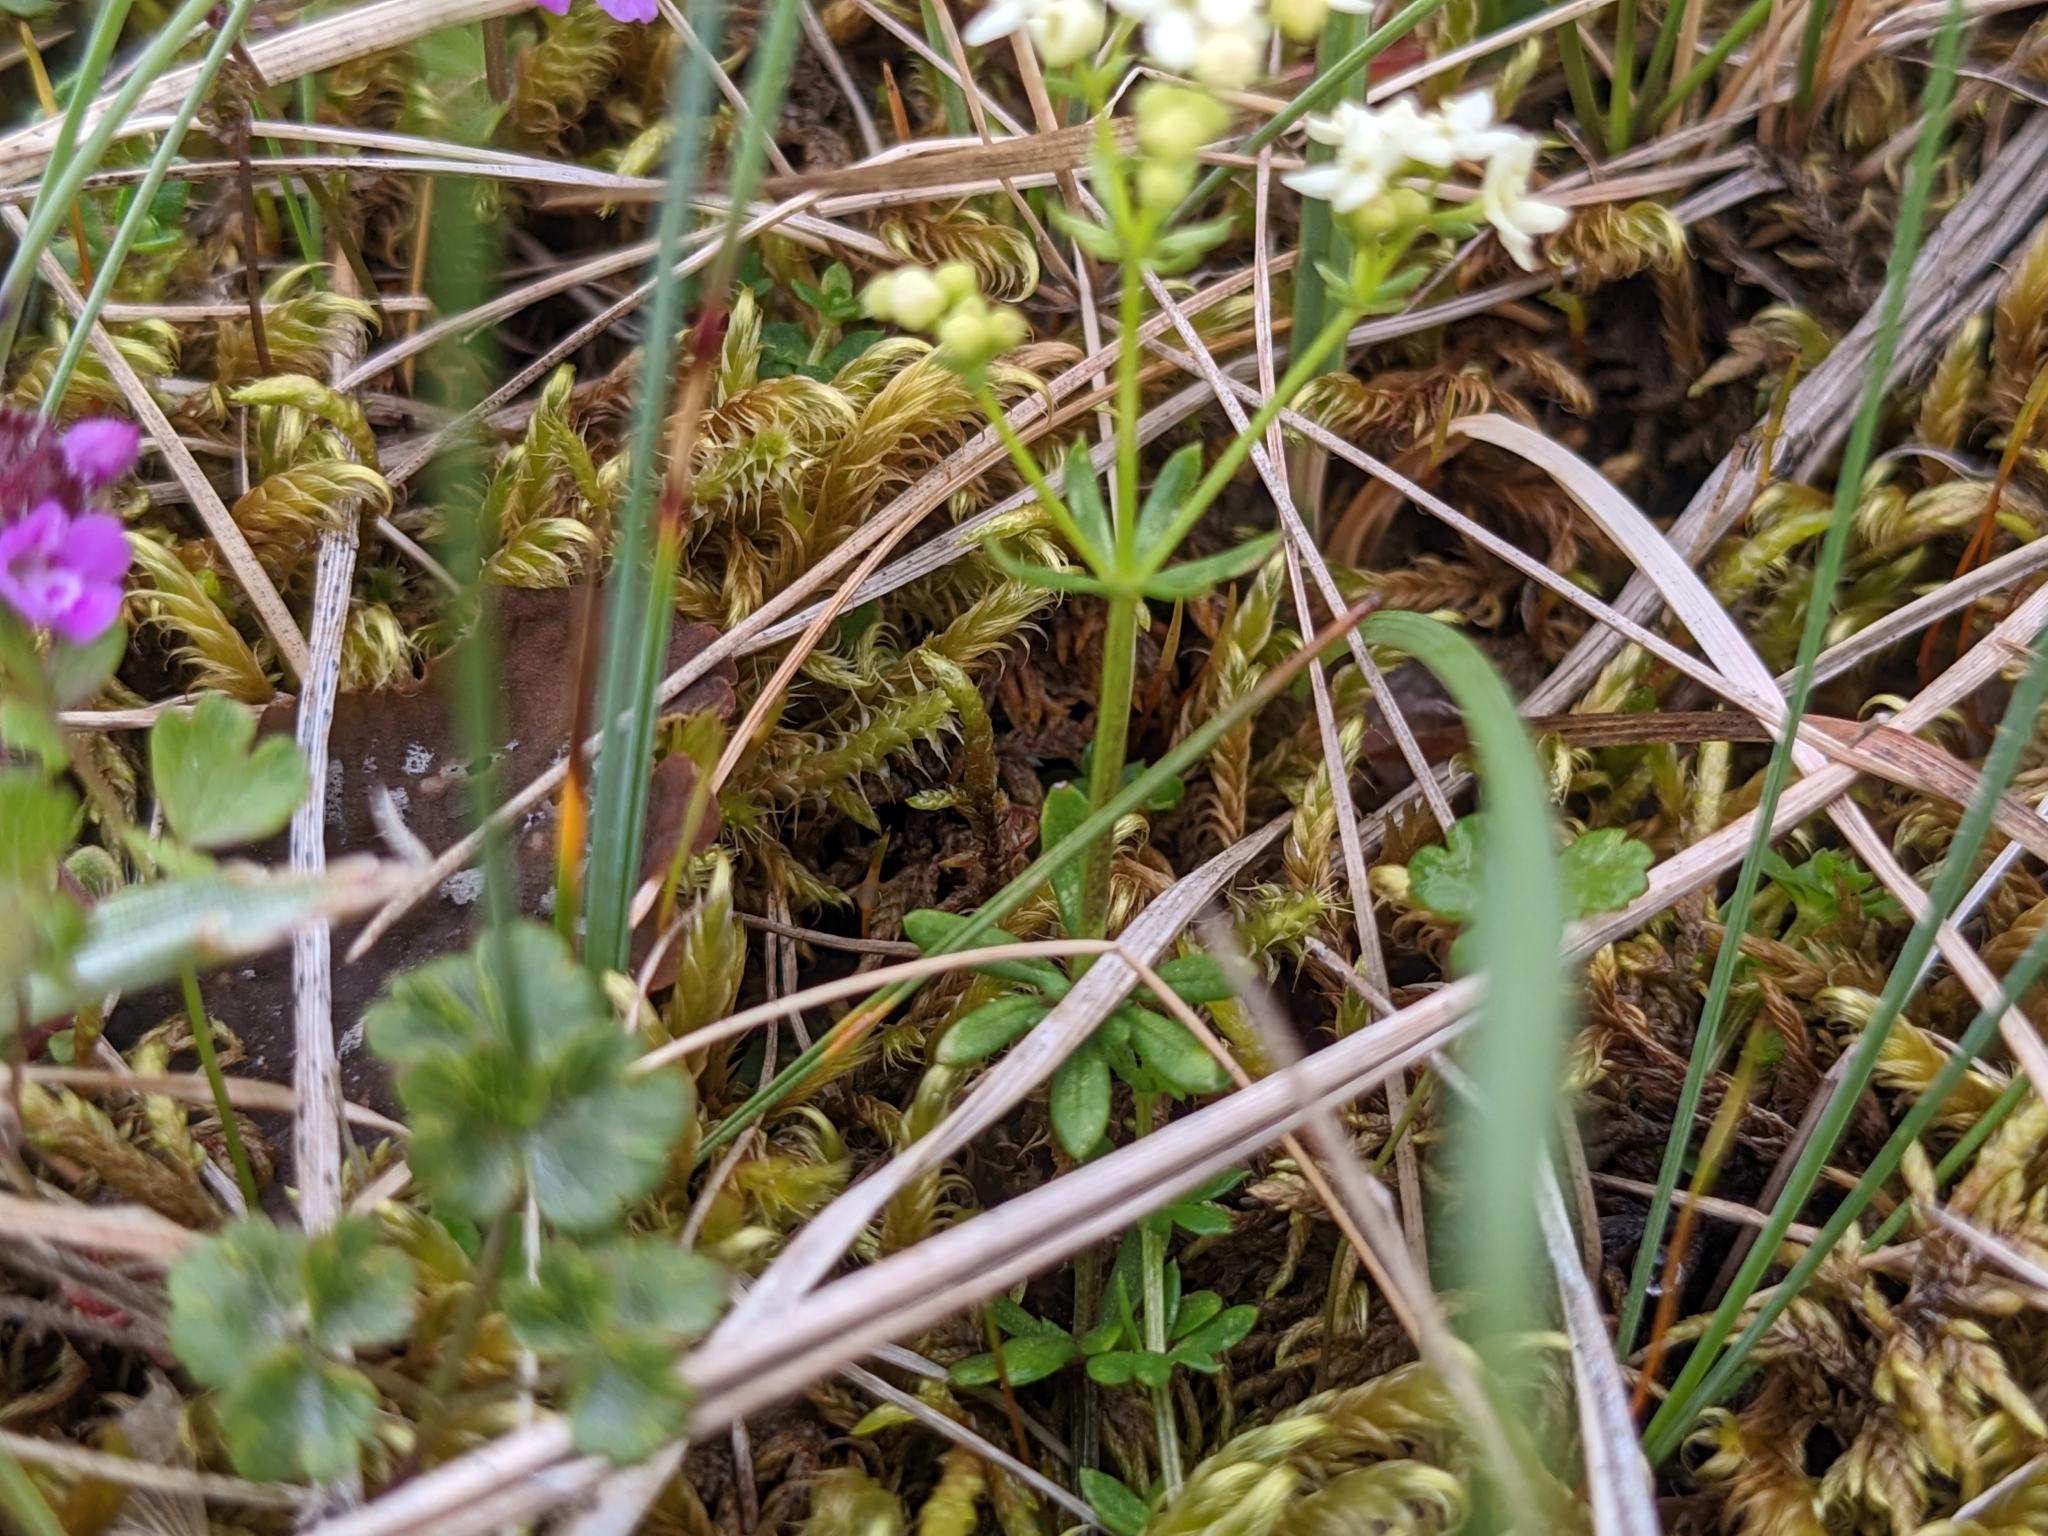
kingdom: Plantae
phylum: Tracheophyta
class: Magnoliopsida
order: Gentianales
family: Rubiaceae
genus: Galium
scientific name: Galium normanii
